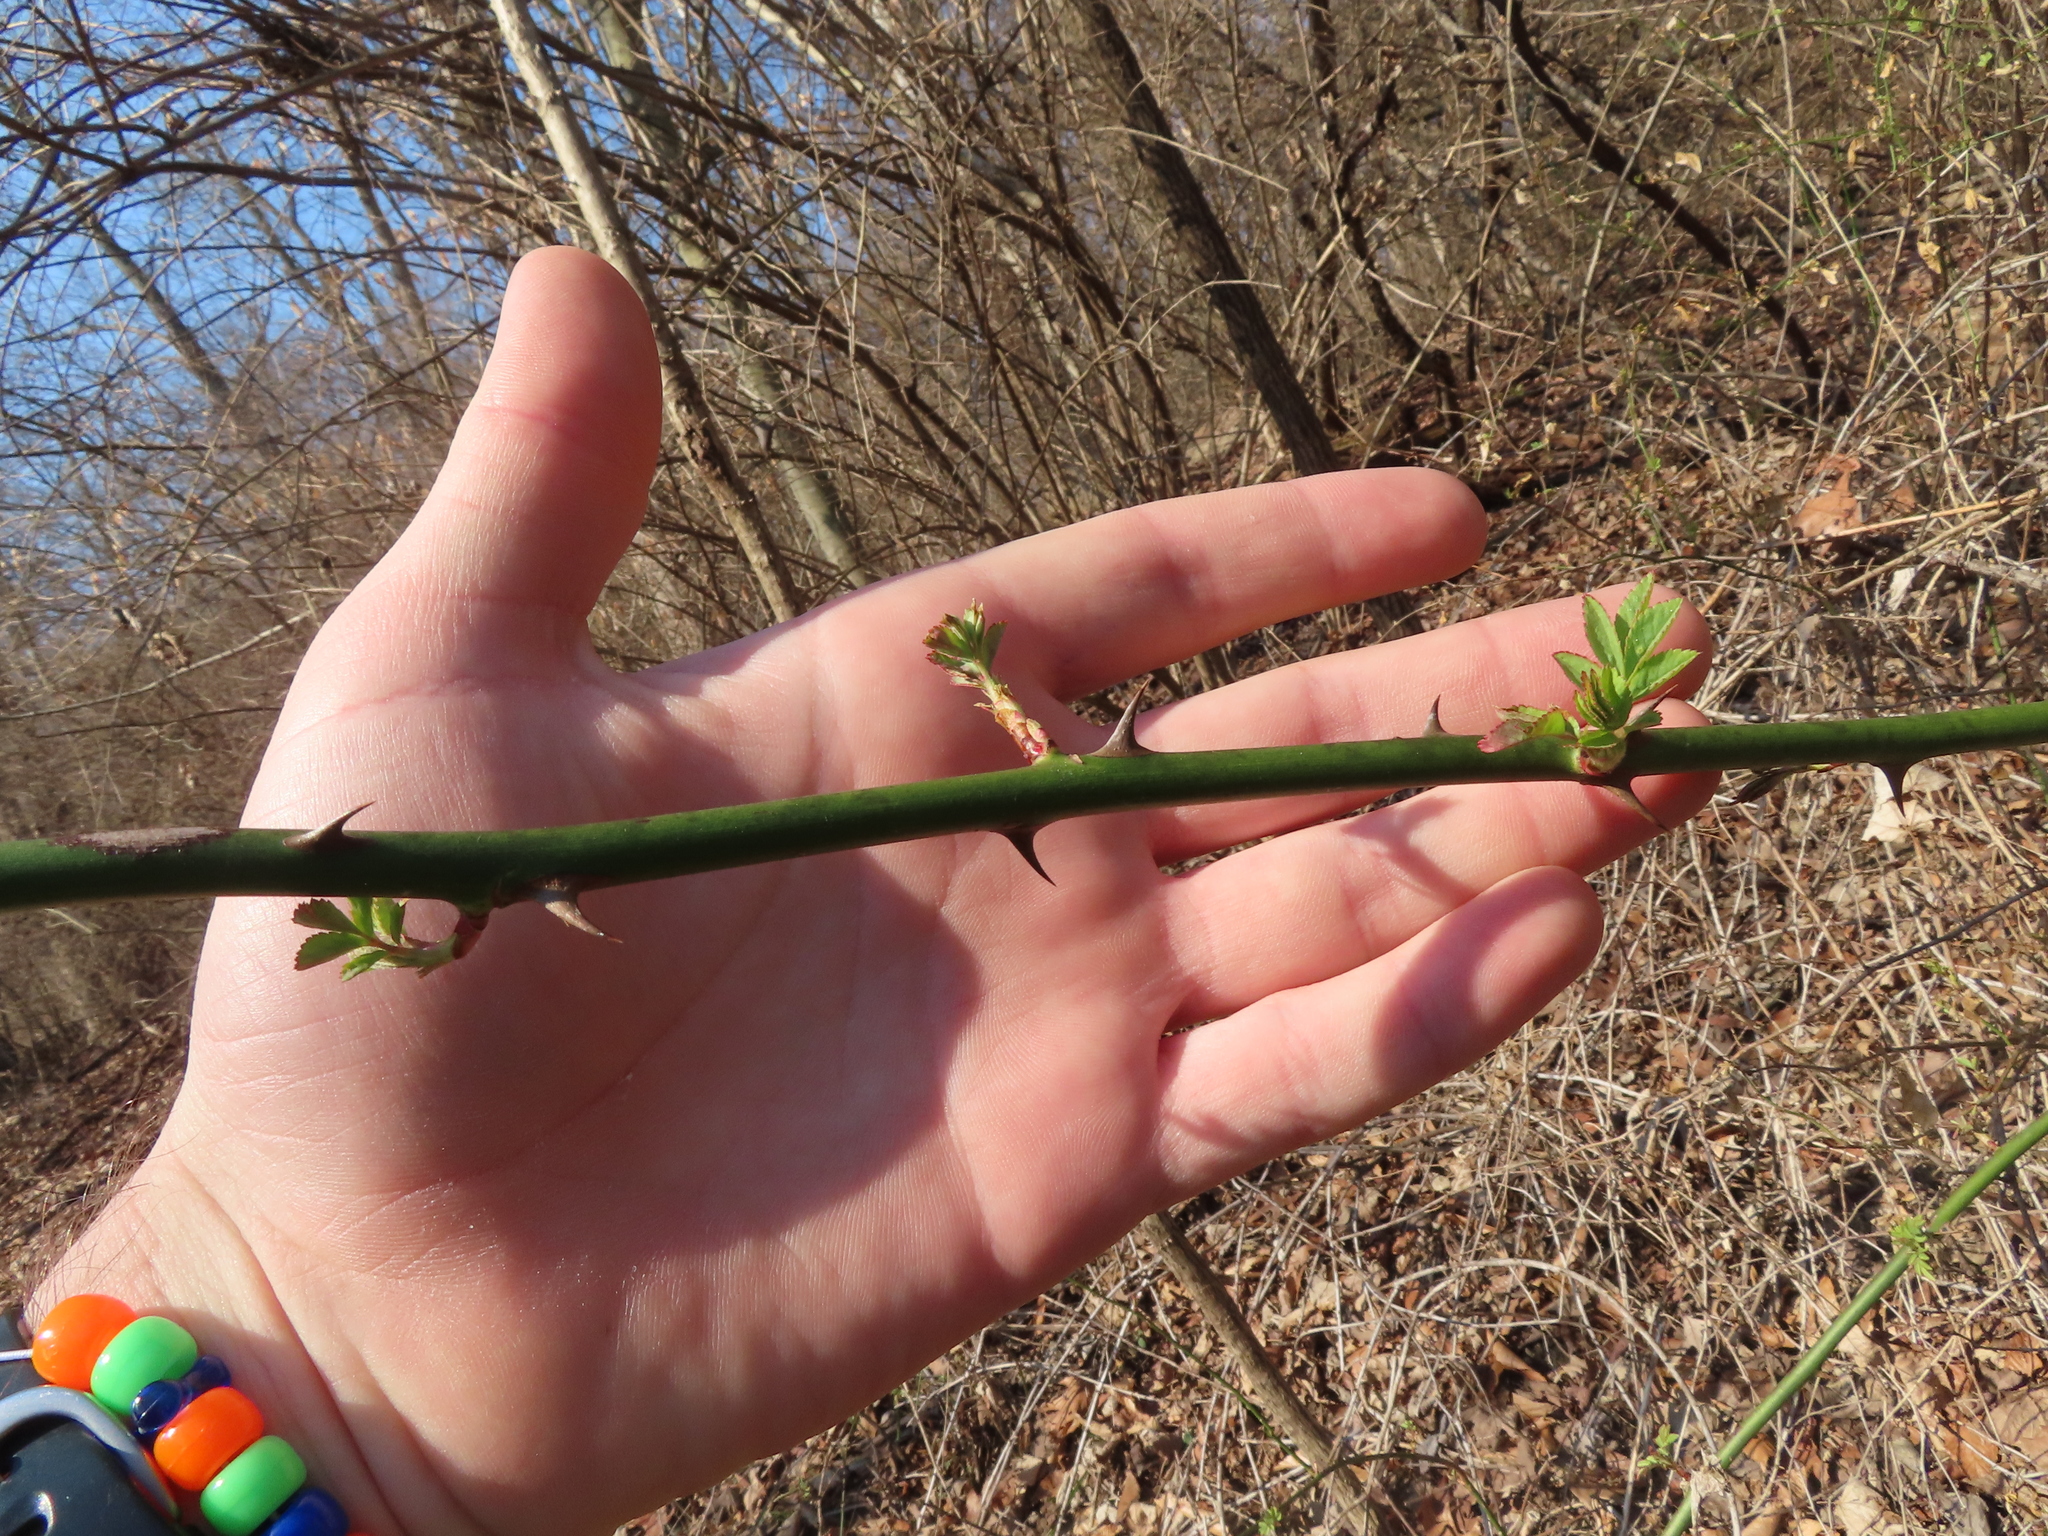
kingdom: Plantae
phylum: Tracheophyta
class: Magnoliopsida
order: Rosales
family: Rosaceae
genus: Rosa
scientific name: Rosa multiflora
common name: Multiflora rose
